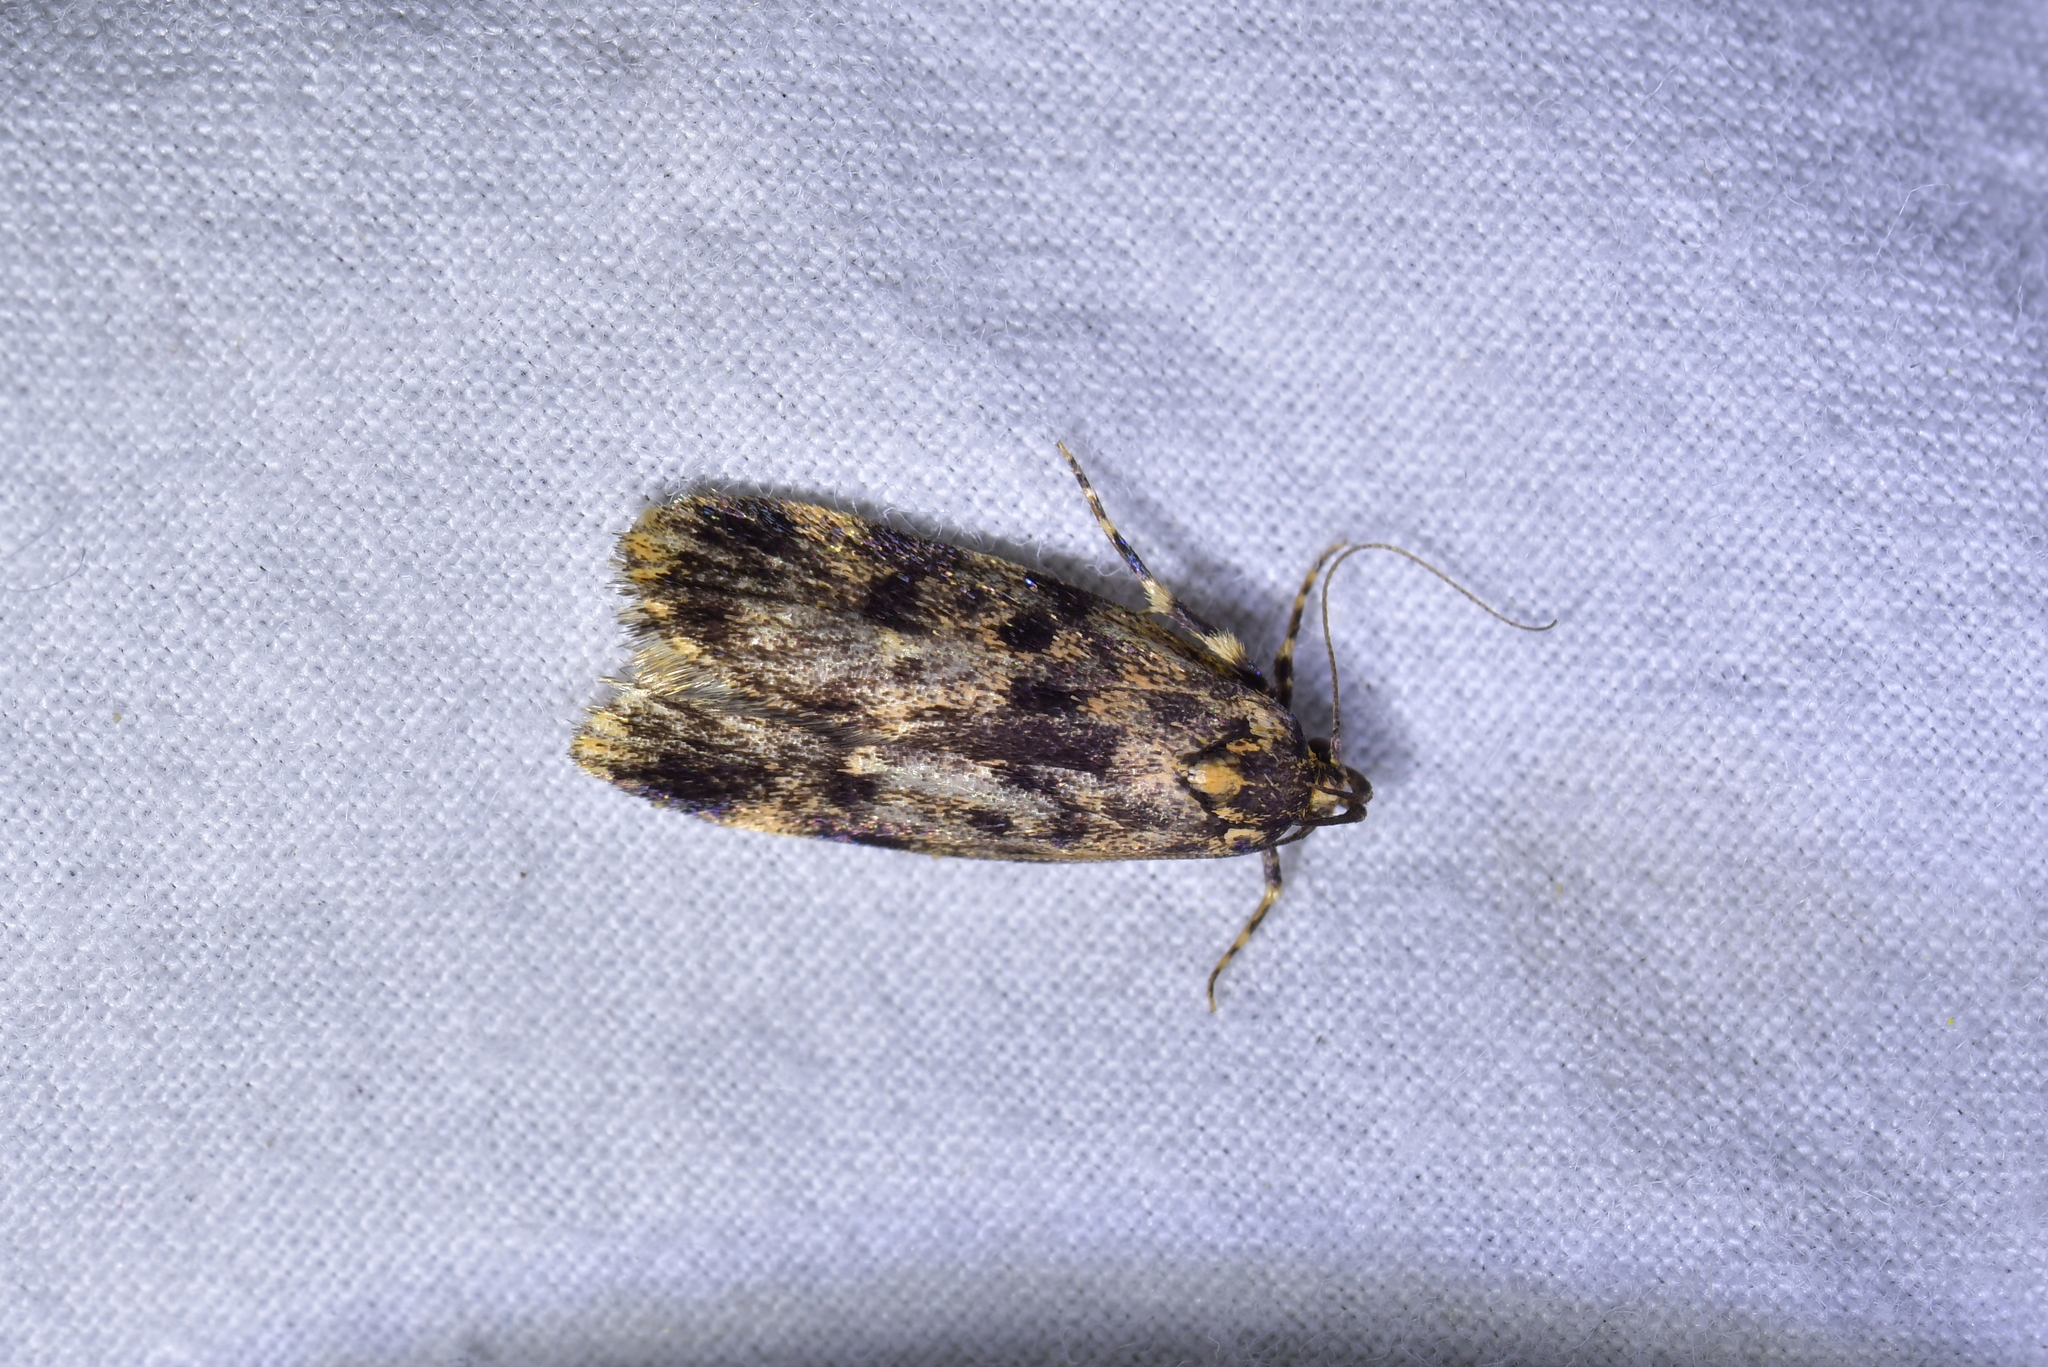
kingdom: Animalia
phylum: Arthropoda
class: Insecta
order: Lepidoptera
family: Oecophoridae
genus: Barea
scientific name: Barea codrella
